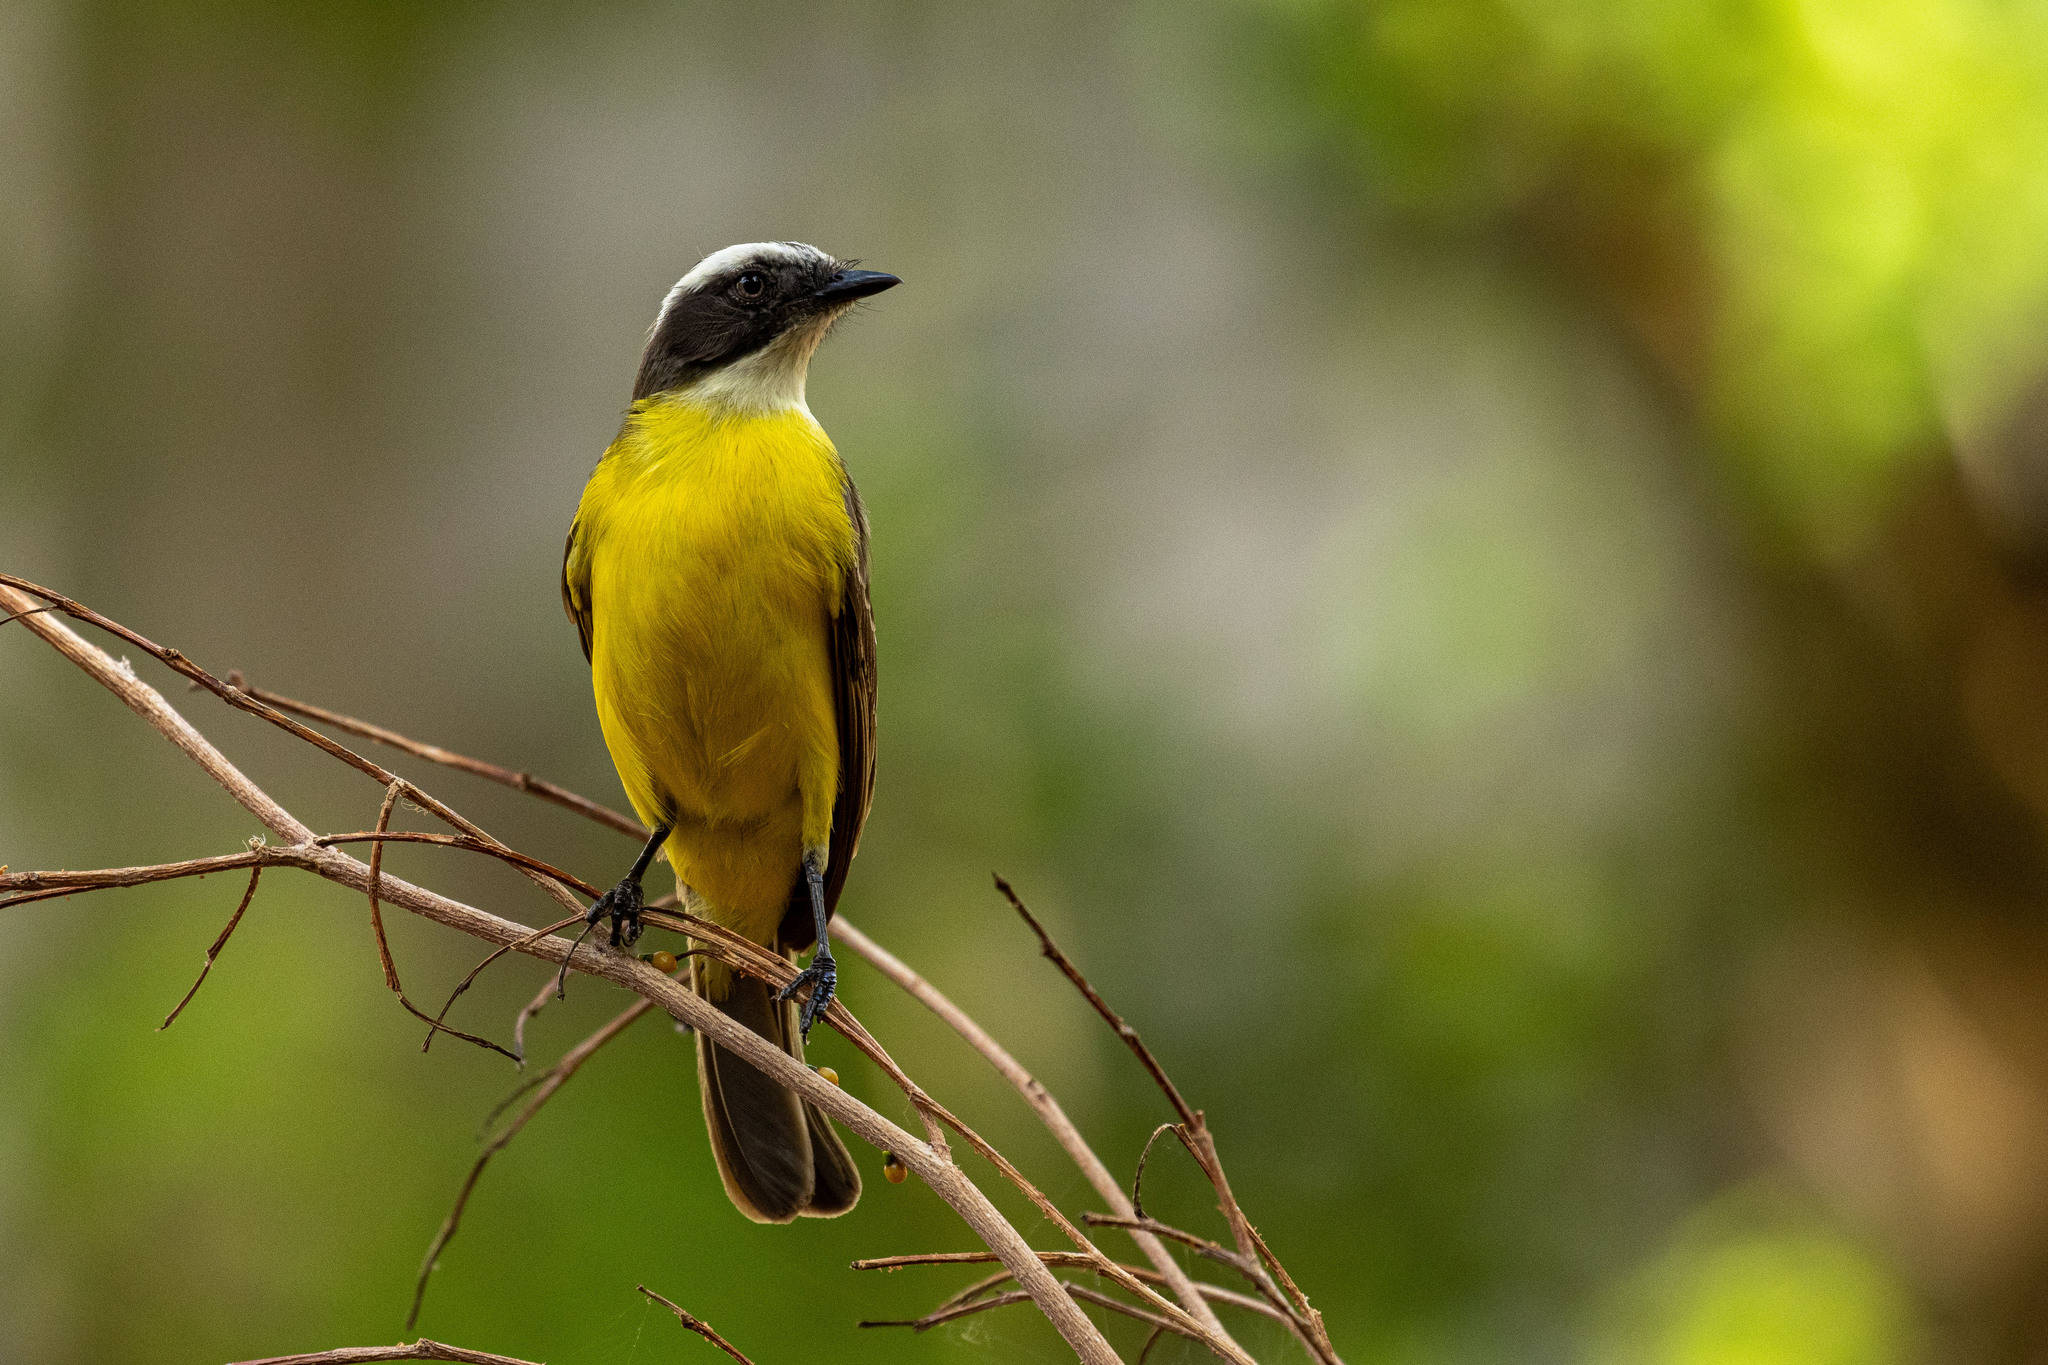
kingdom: Animalia
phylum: Chordata
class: Aves
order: Passeriformes
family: Tyrannidae
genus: Myiozetetes
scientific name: Myiozetetes similis
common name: Social flycatcher
